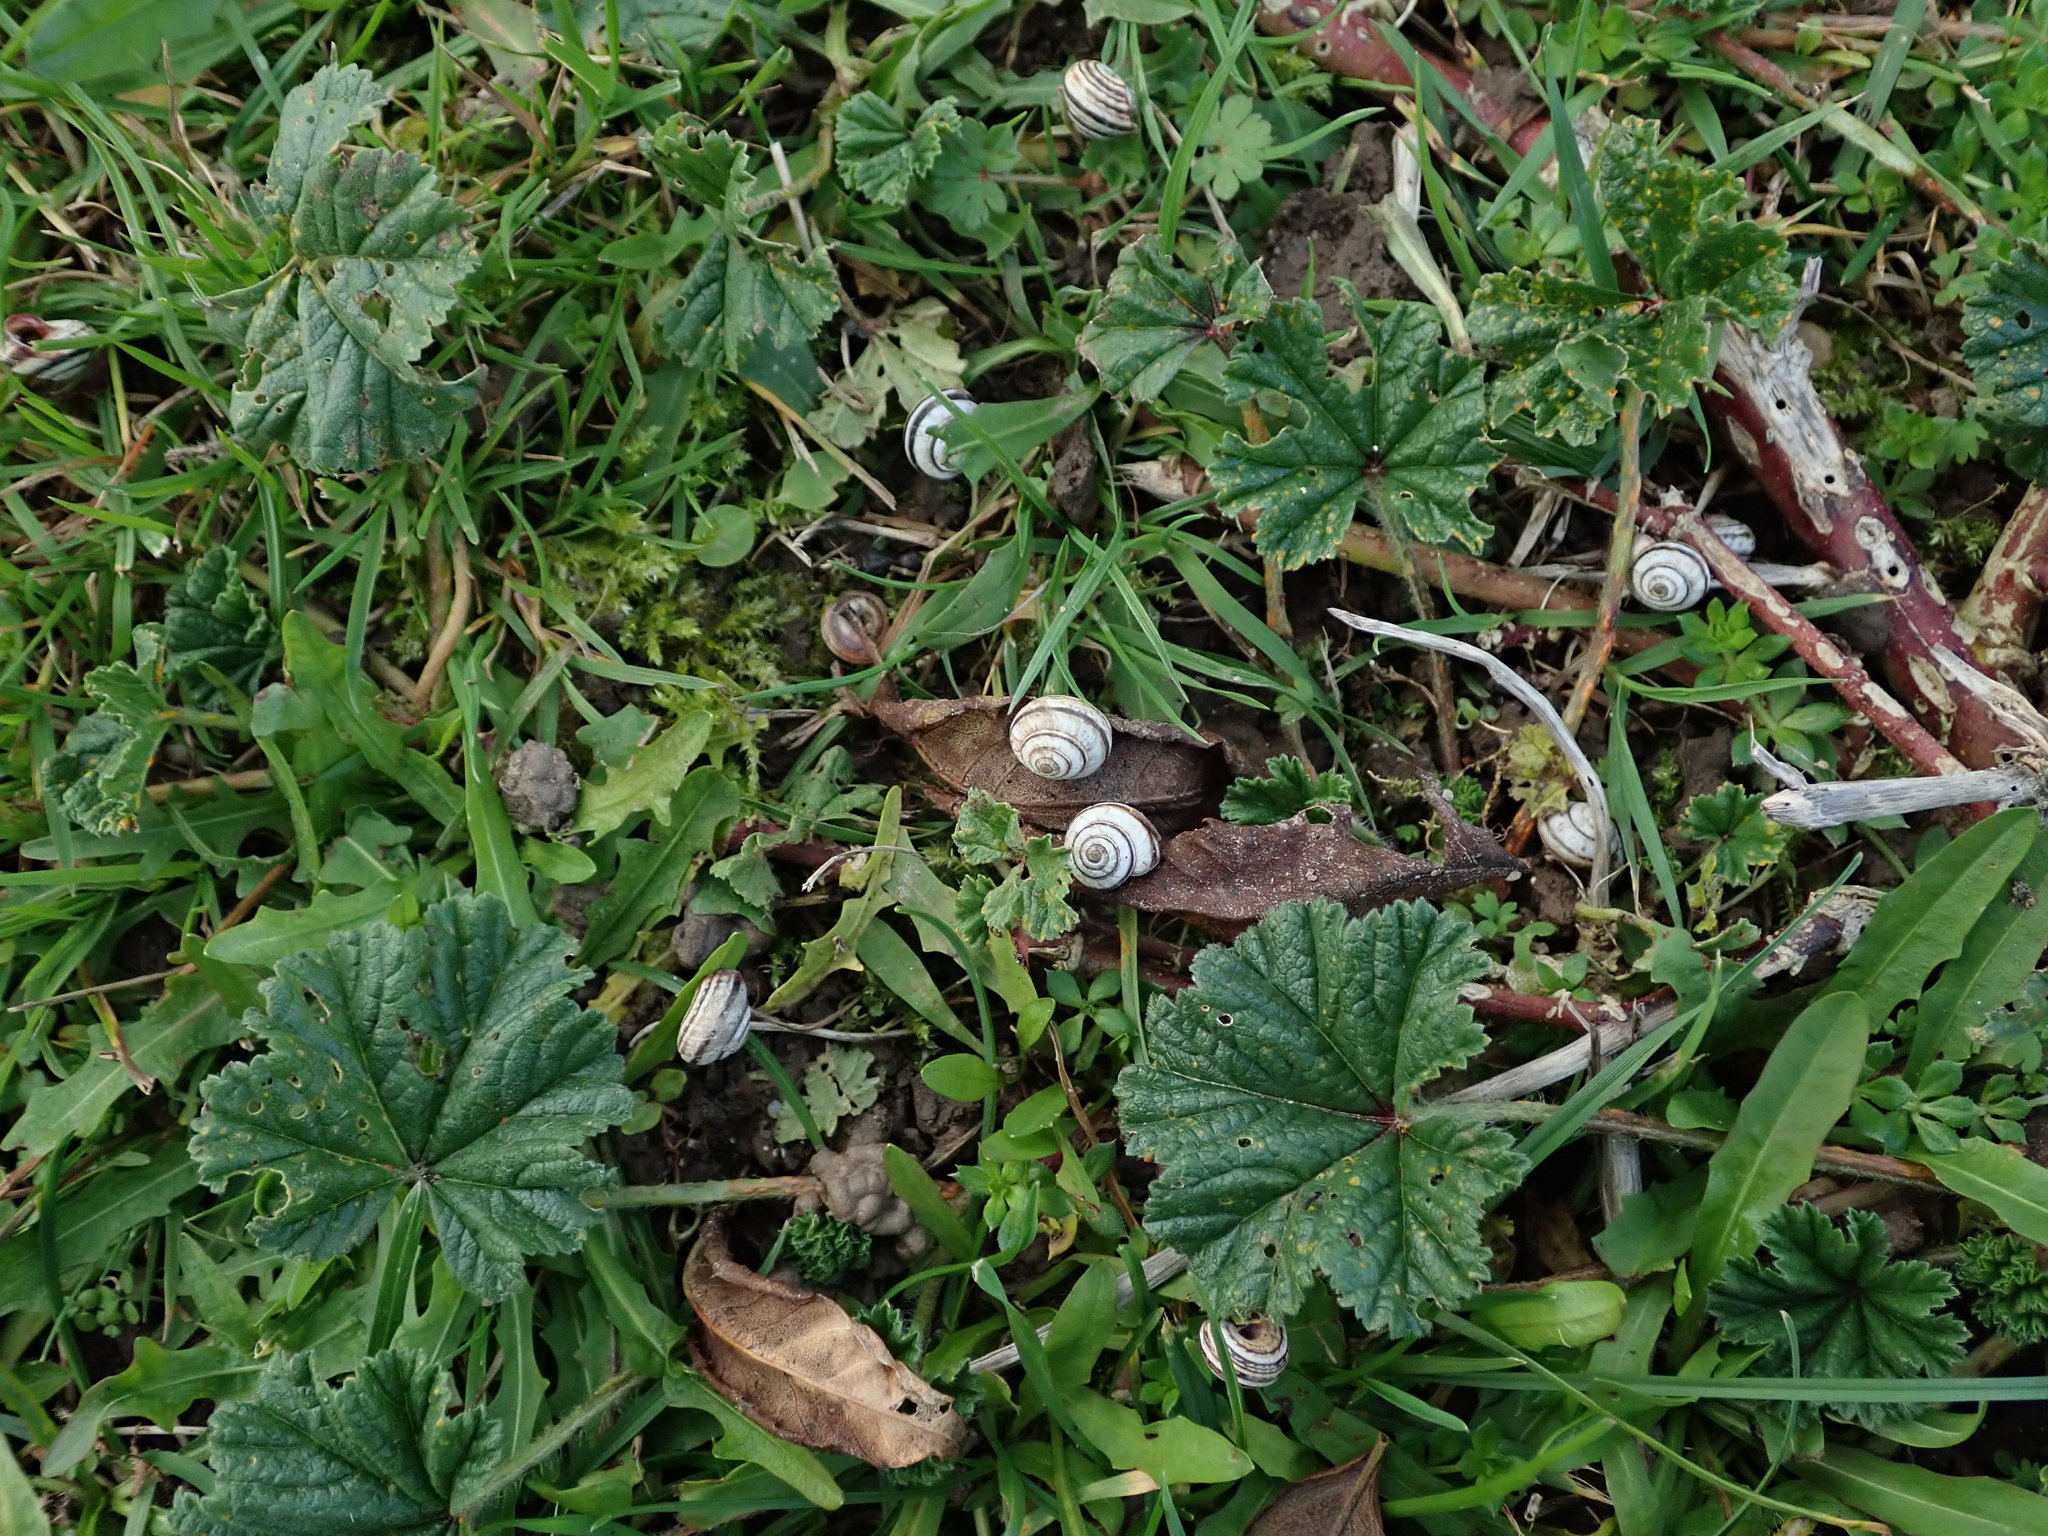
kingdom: Animalia
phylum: Mollusca
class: Gastropoda
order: Stylommatophora
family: Geomitridae
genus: Cernuella
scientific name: Cernuella virgata
